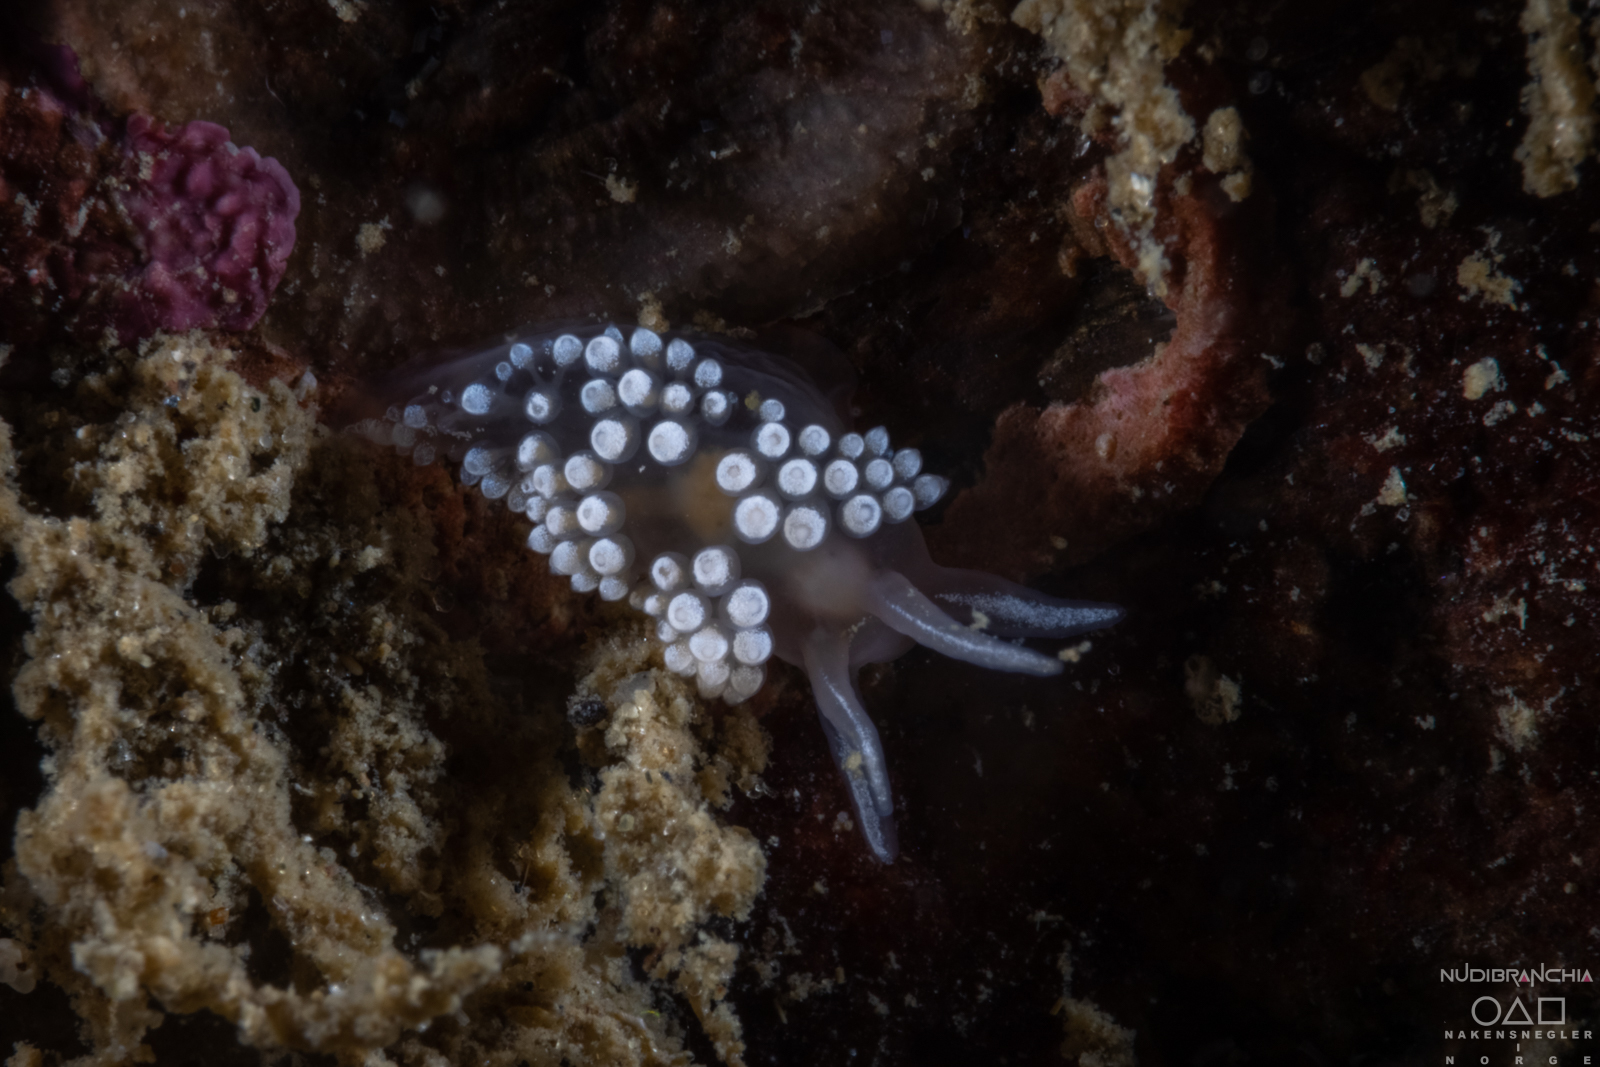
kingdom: Animalia
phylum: Mollusca
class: Gastropoda
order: Nudibranchia
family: Coryphellidae
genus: Coryphella
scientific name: Coryphella verrucosa
